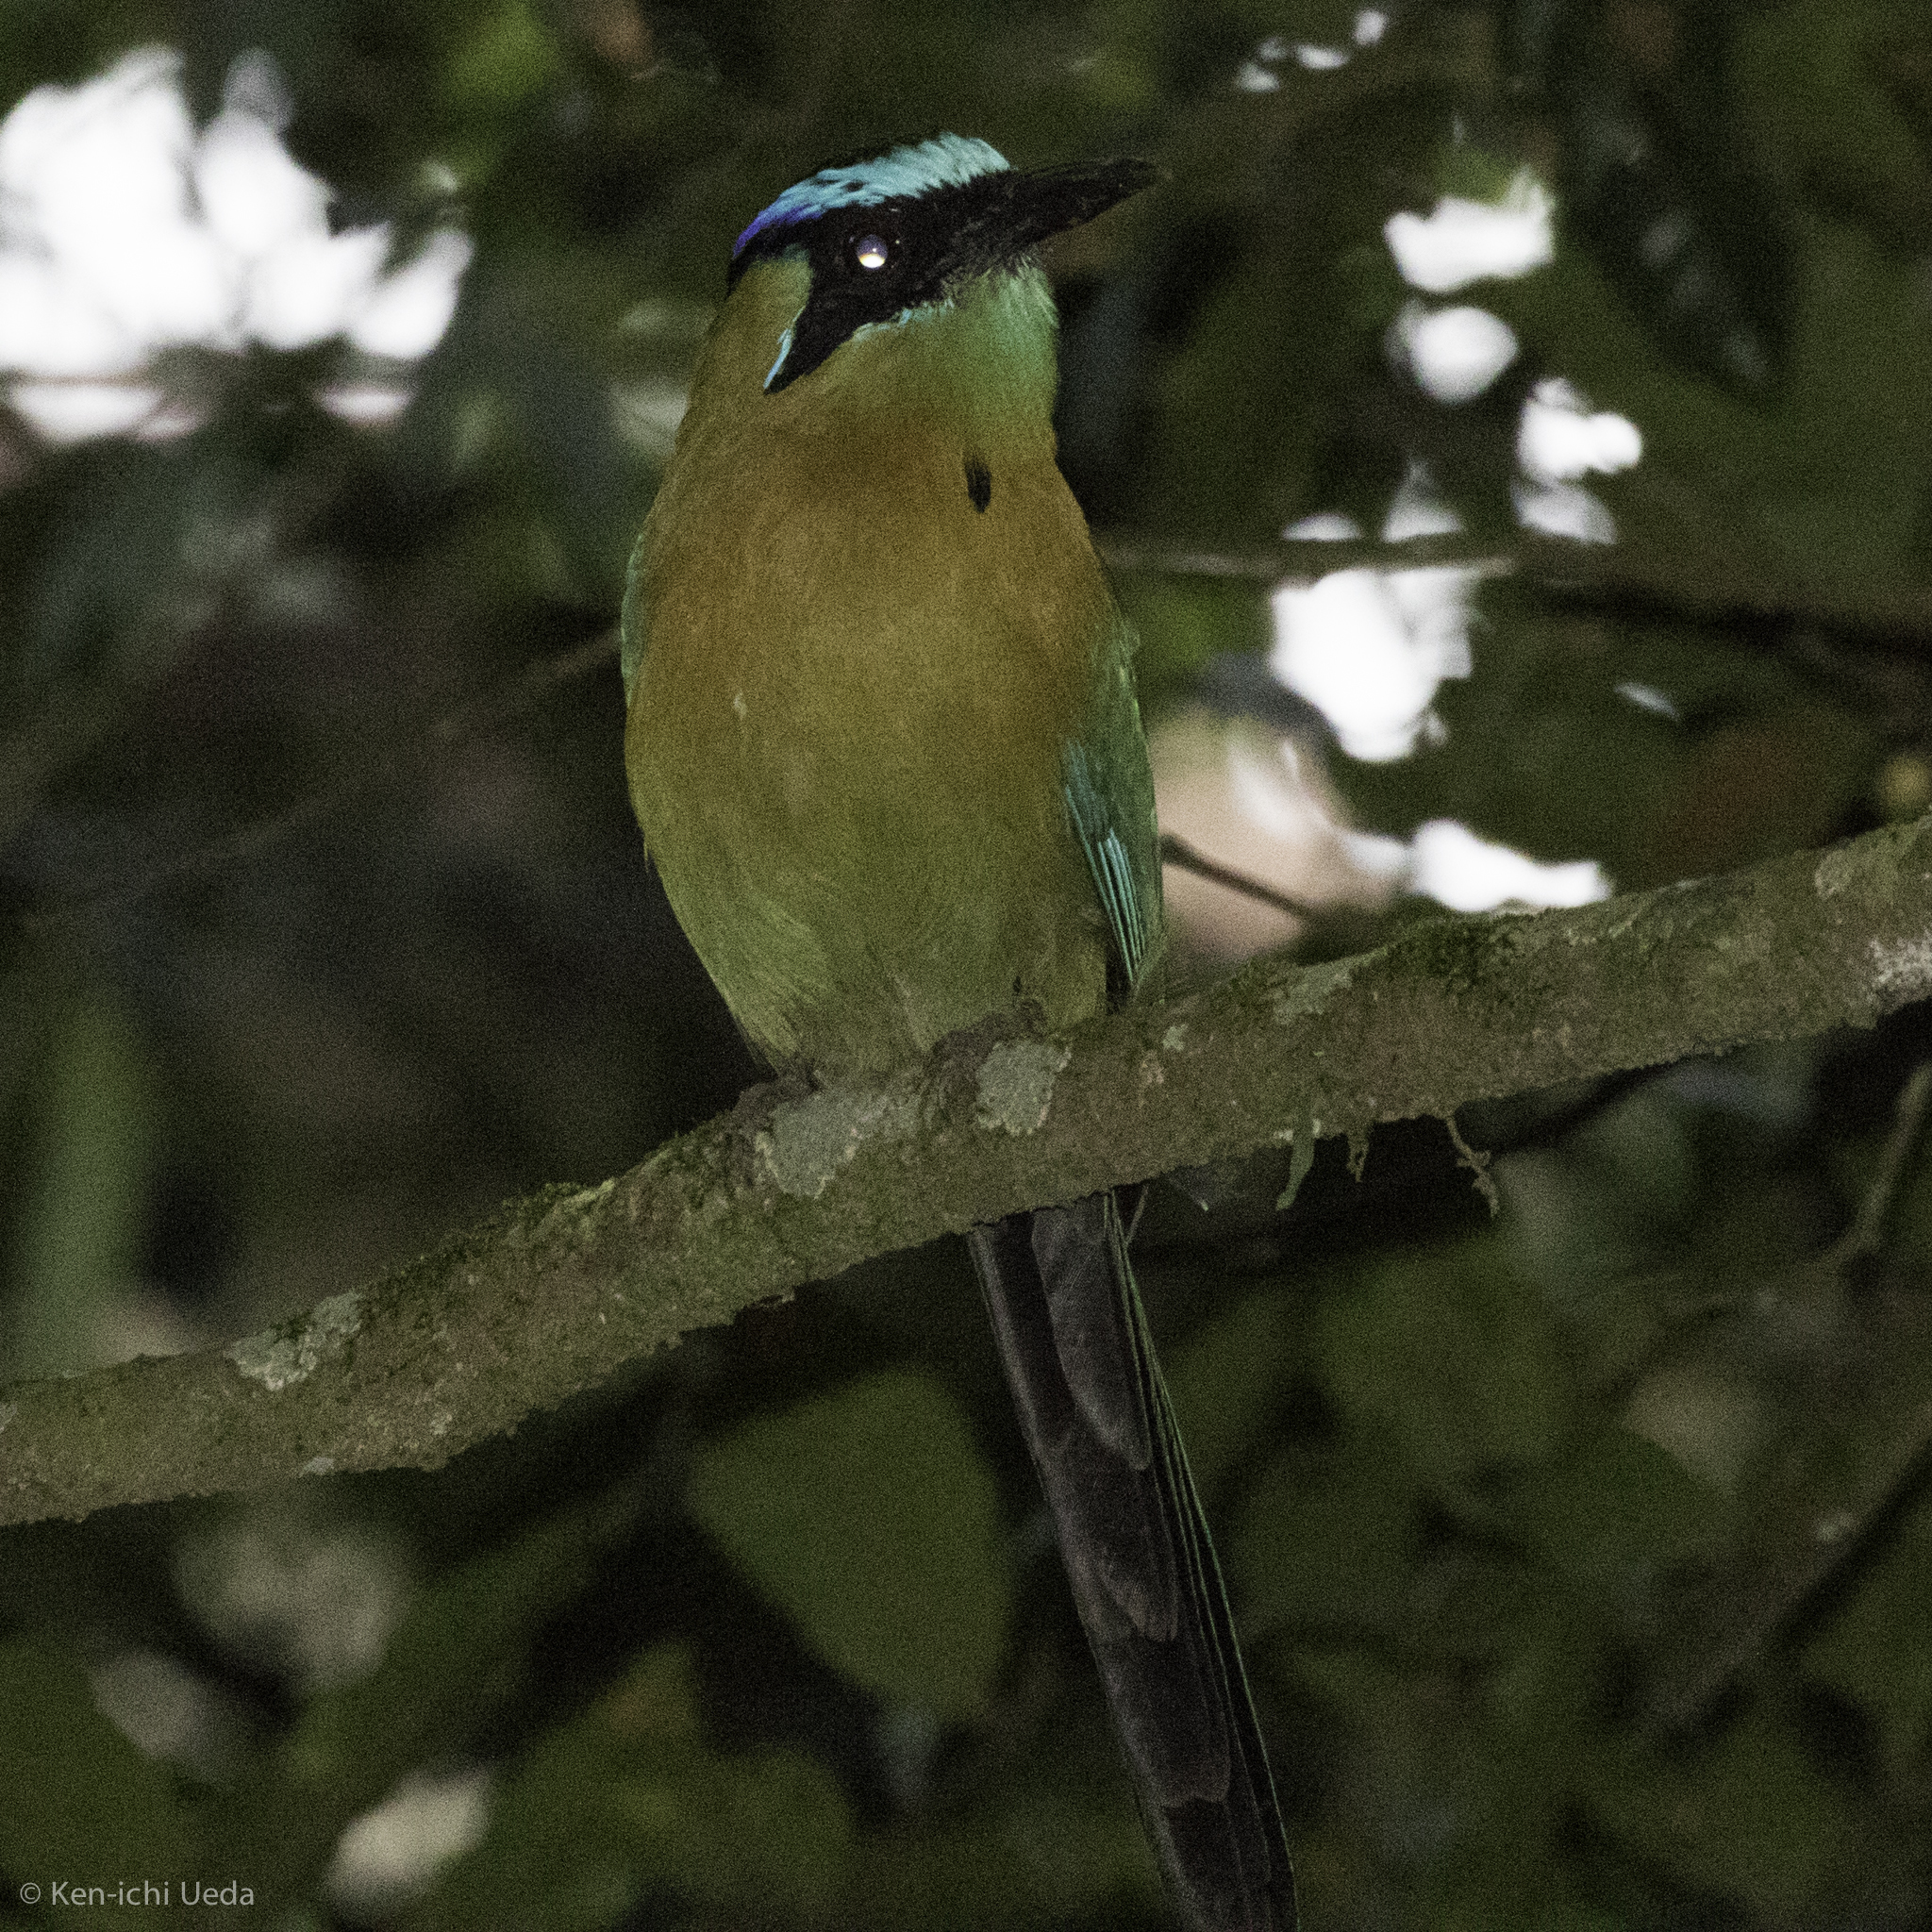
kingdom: Animalia
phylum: Chordata
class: Aves
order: Coraciiformes
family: Momotidae
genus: Momotus
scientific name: Momotus lessonii
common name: Lesson's motmot
